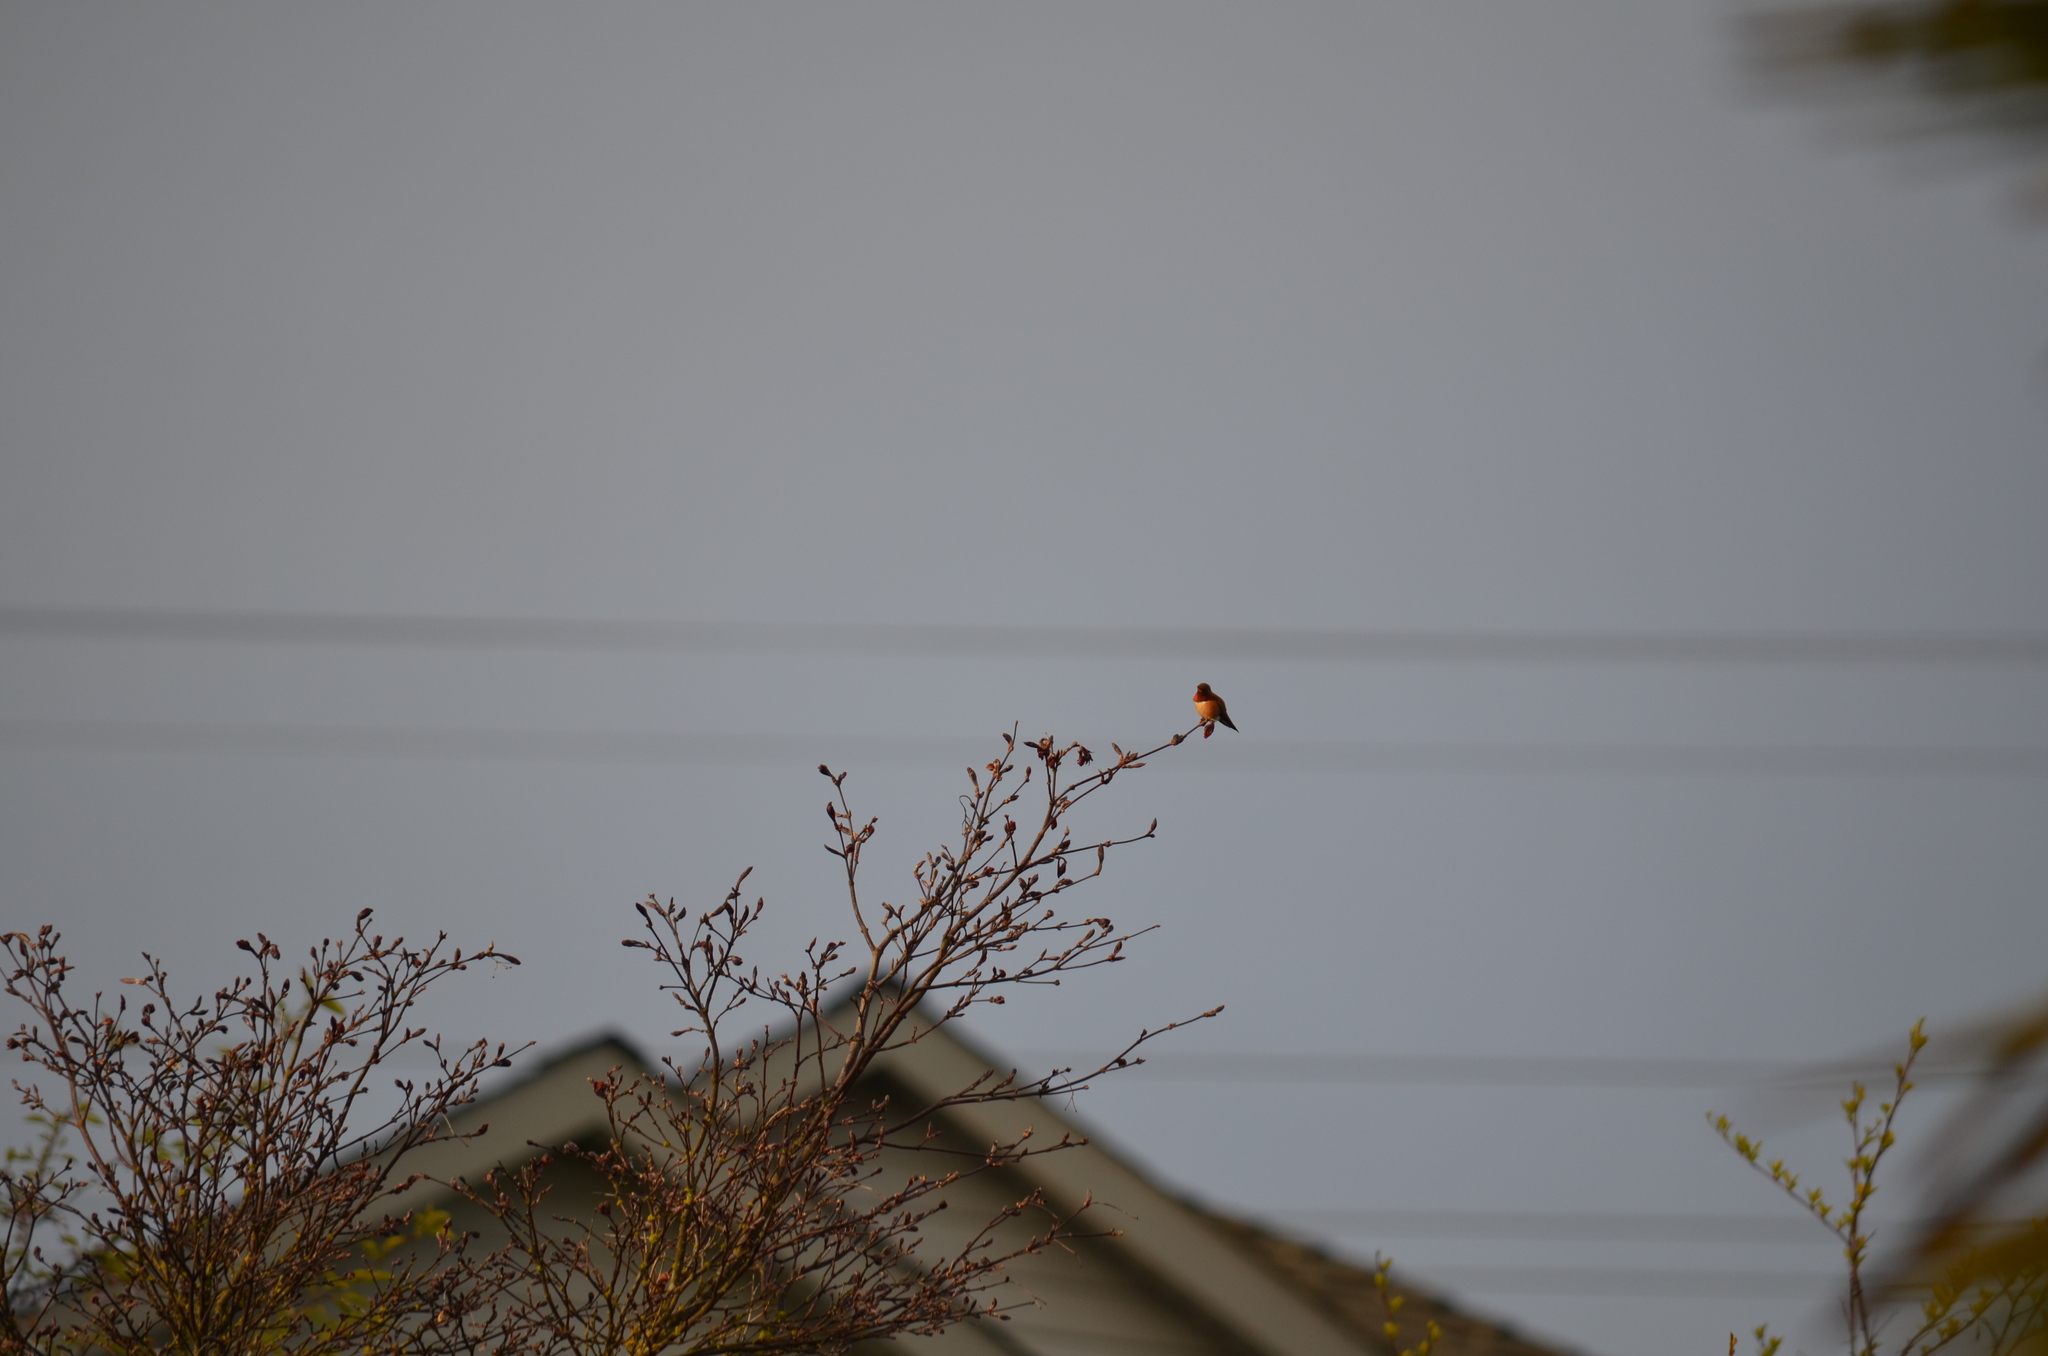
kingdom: Animalia
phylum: Chordata
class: Aves
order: Apodiformes
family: Trochilidae
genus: Selasphorus
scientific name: Selasphorus rufus
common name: Rufous hummingbird
